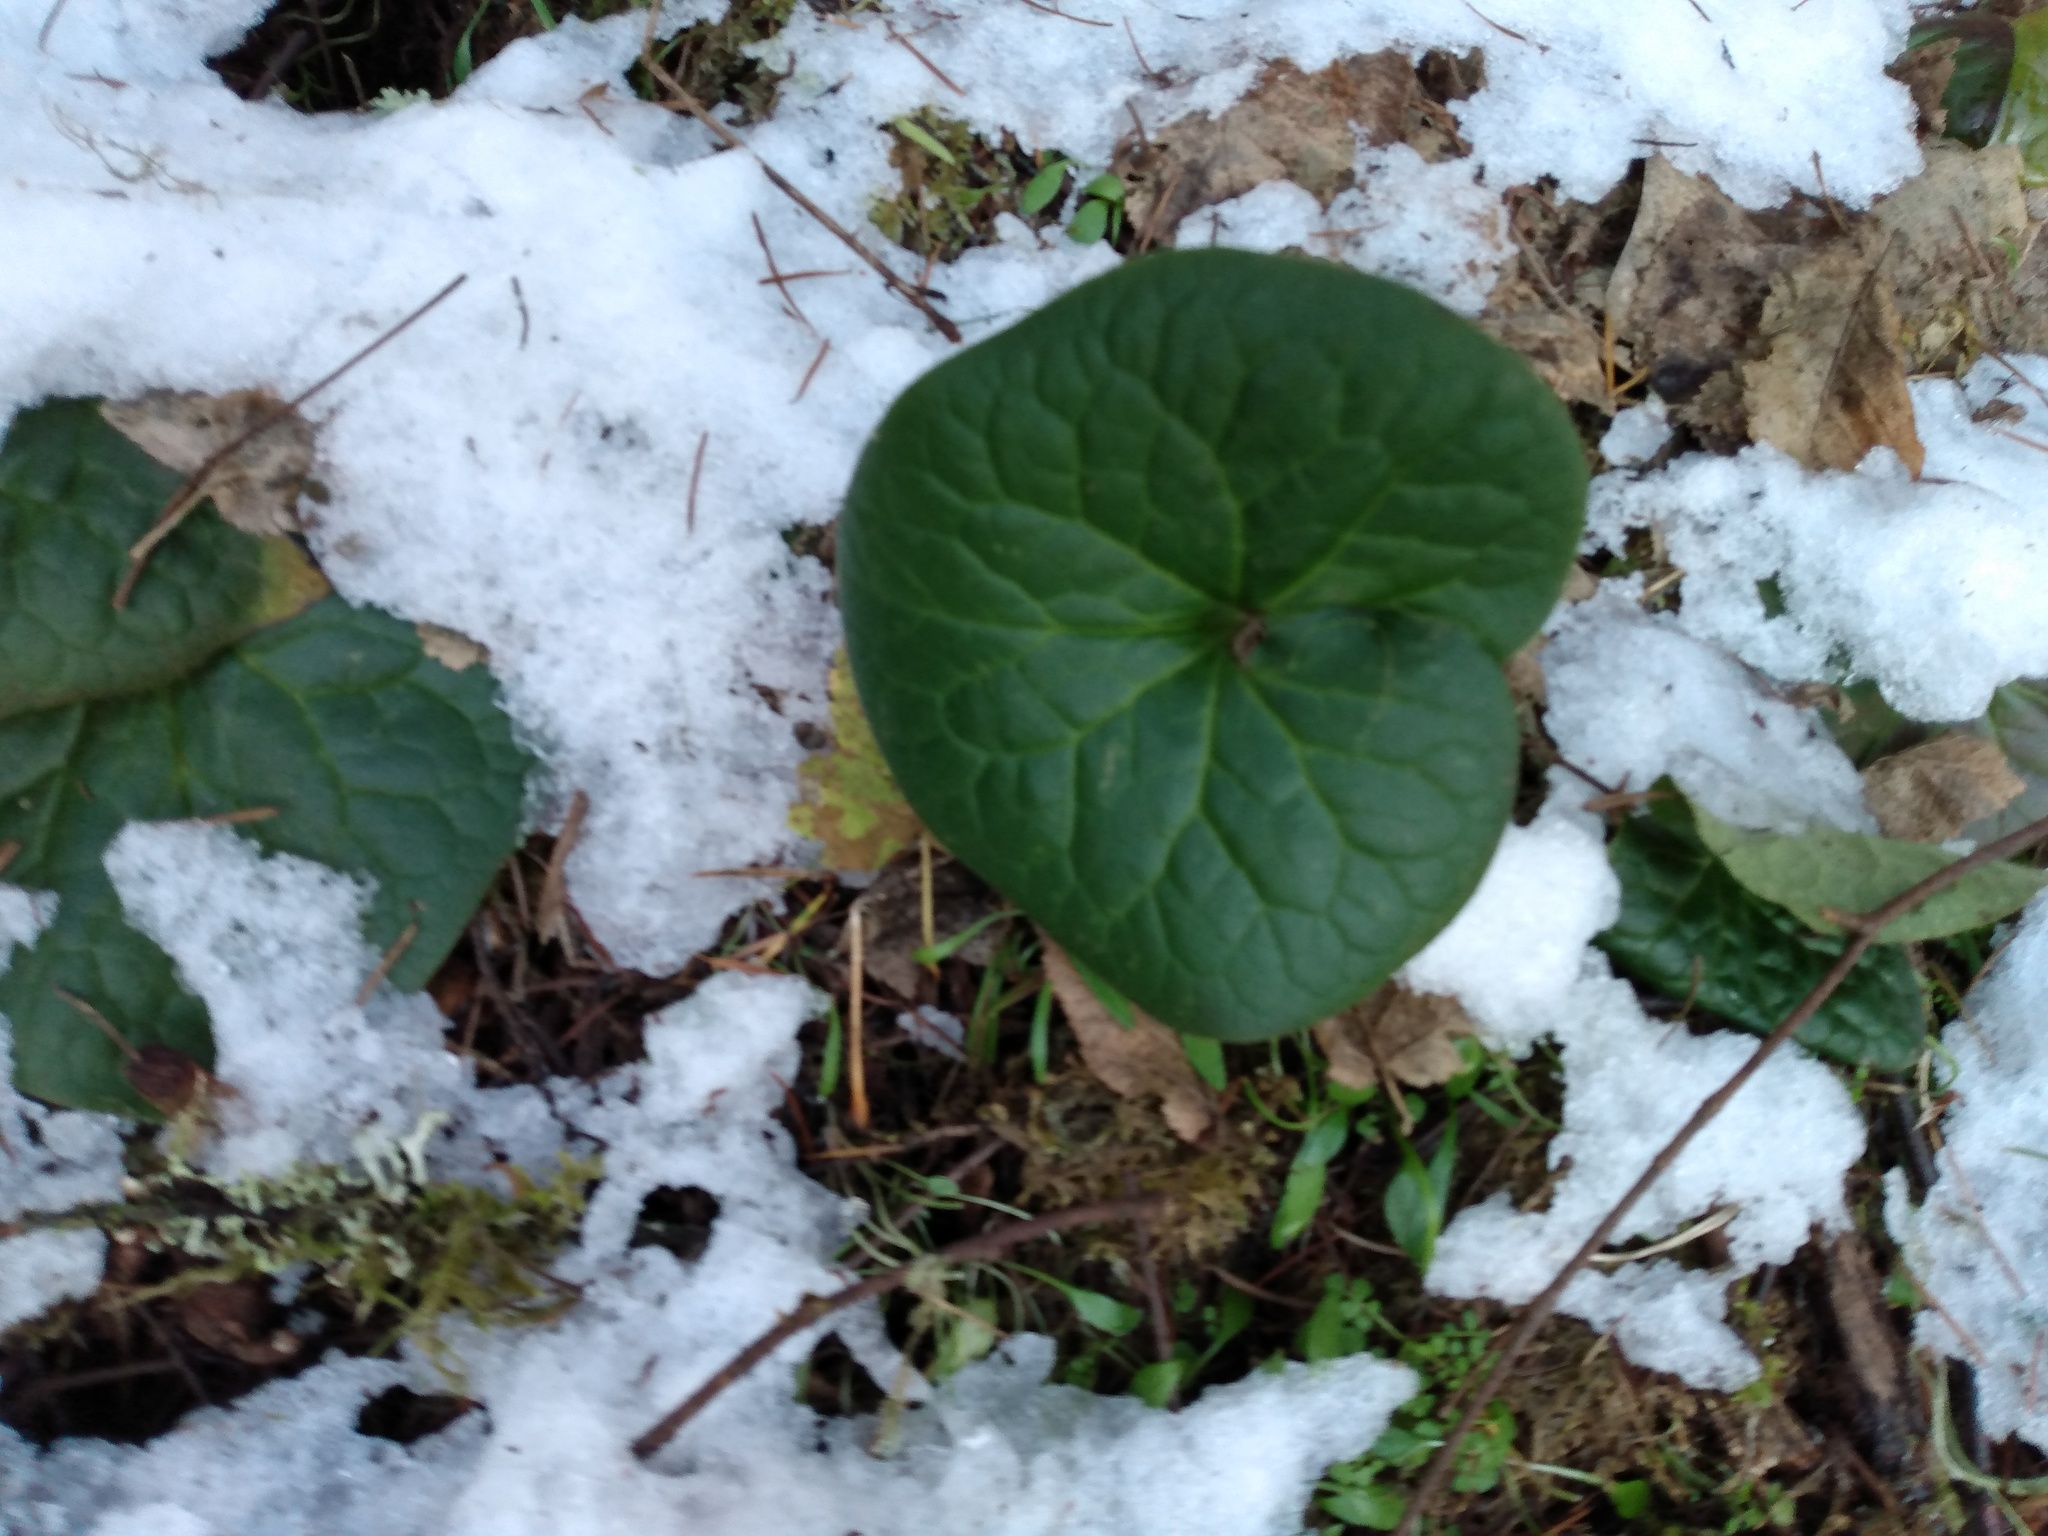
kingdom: Plantae
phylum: Tracheophyta
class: Magnoliopsida
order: Piperales
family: Aristolochiaceae
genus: Asarum
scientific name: Asarum caudatum
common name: Wild ginger
